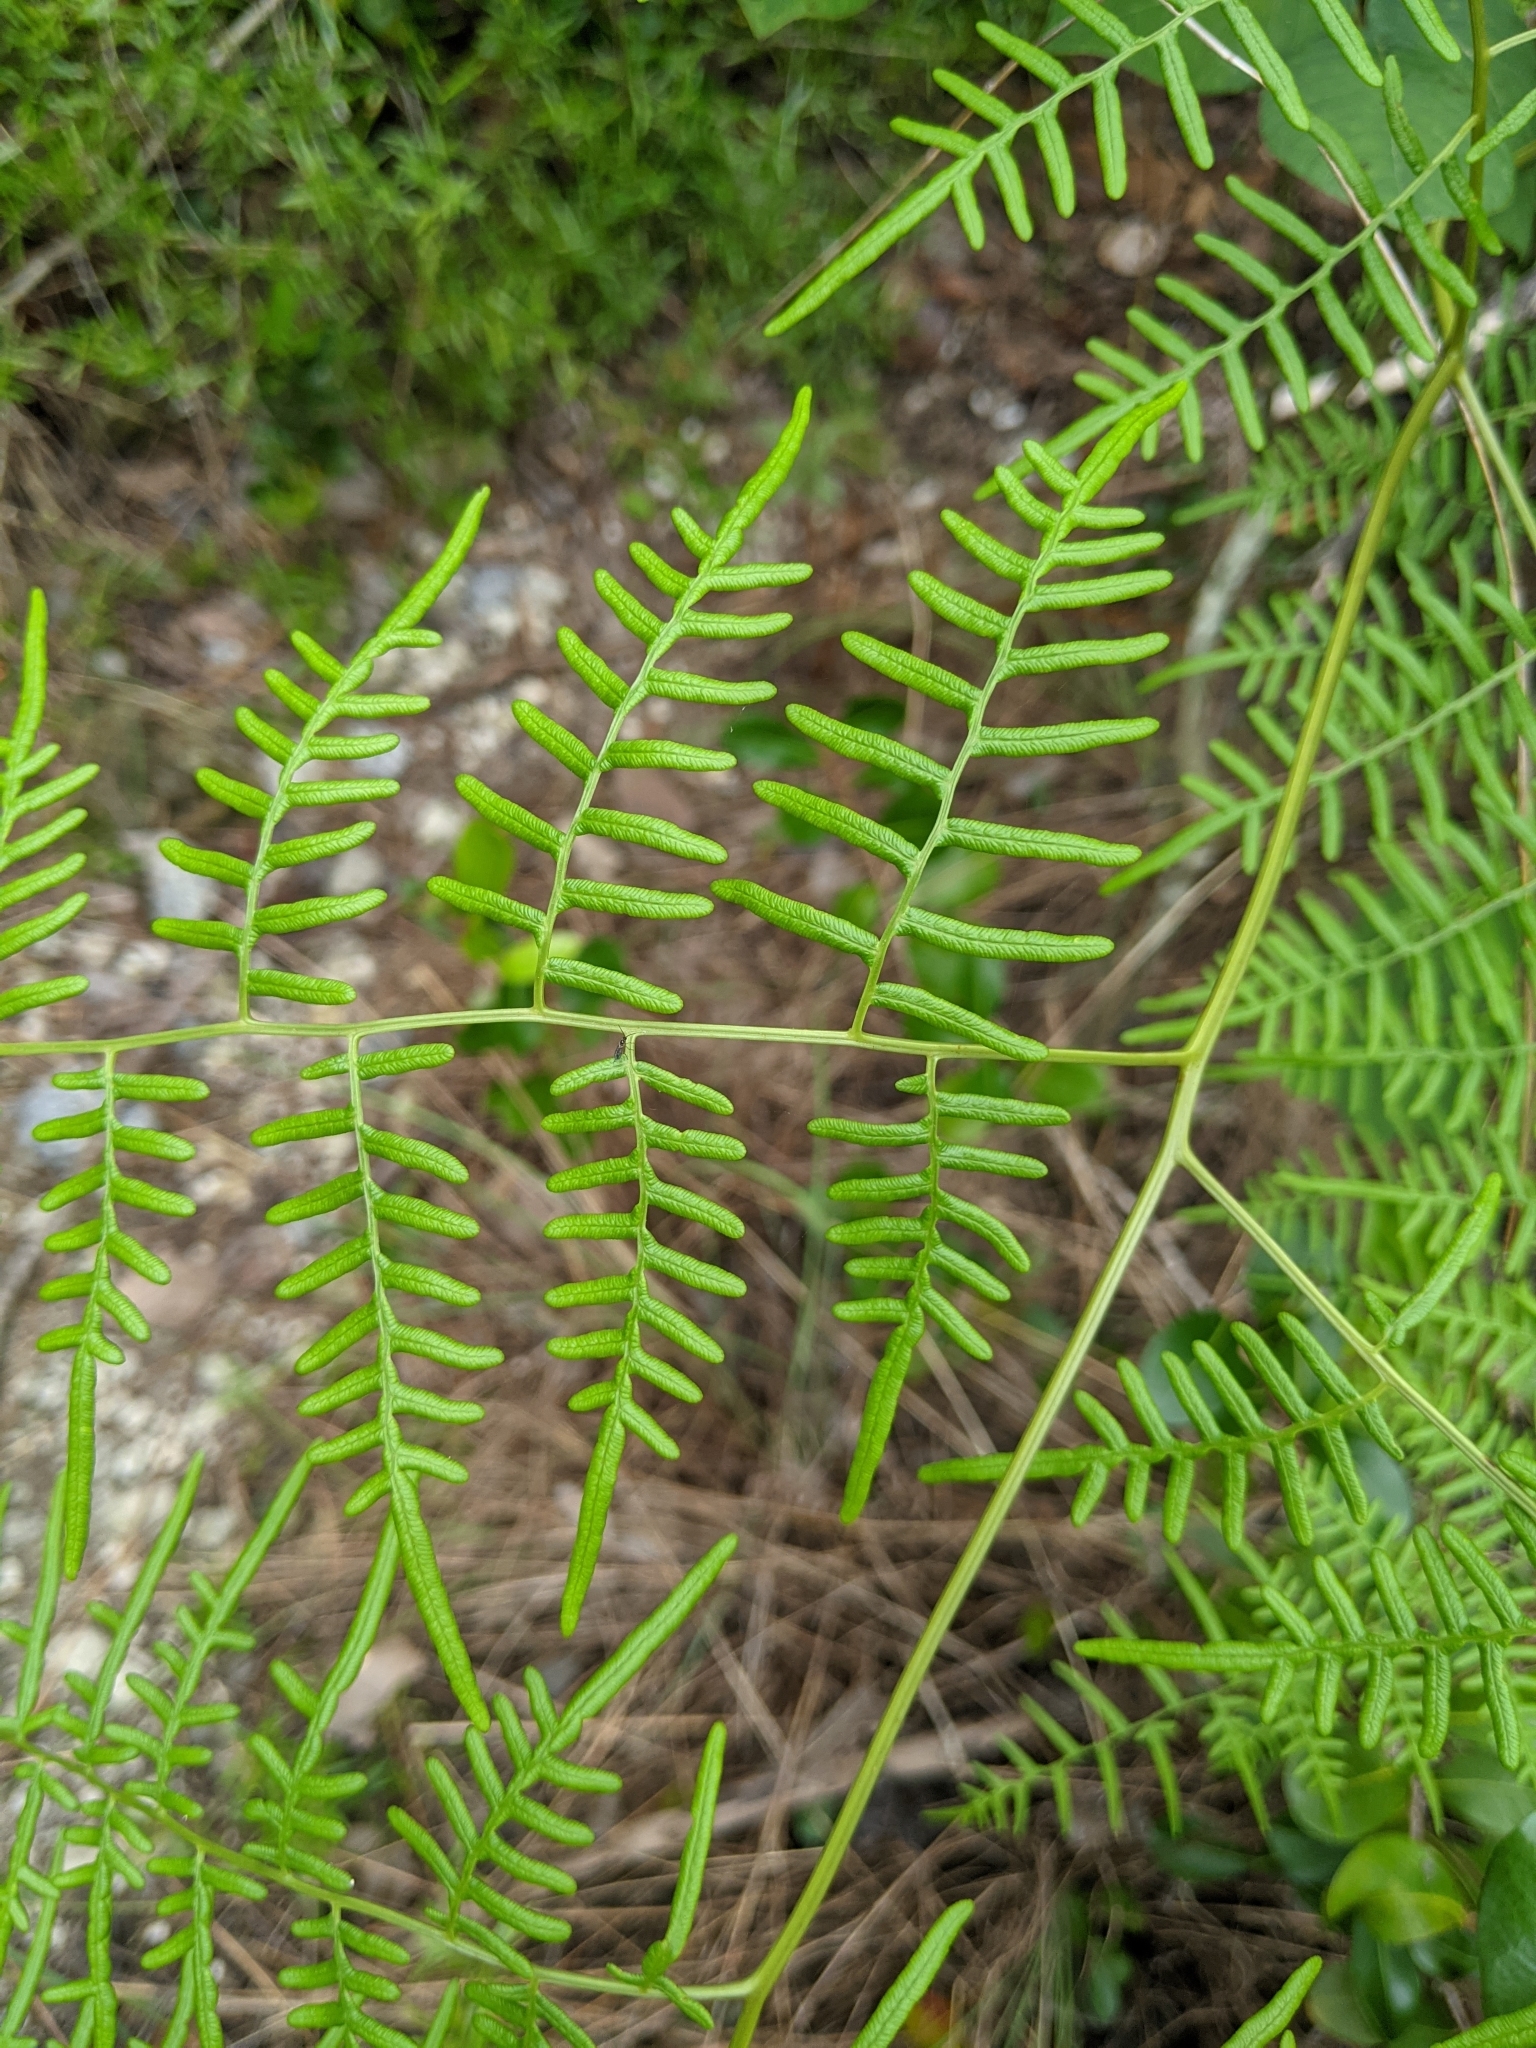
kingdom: Plantae
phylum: Tracheophyta
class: Polypodiopsida
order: Polypodiales
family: Dennstaedtiaceae
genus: Pteridium
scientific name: Pteridium caudatum
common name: Southern bracken fern
